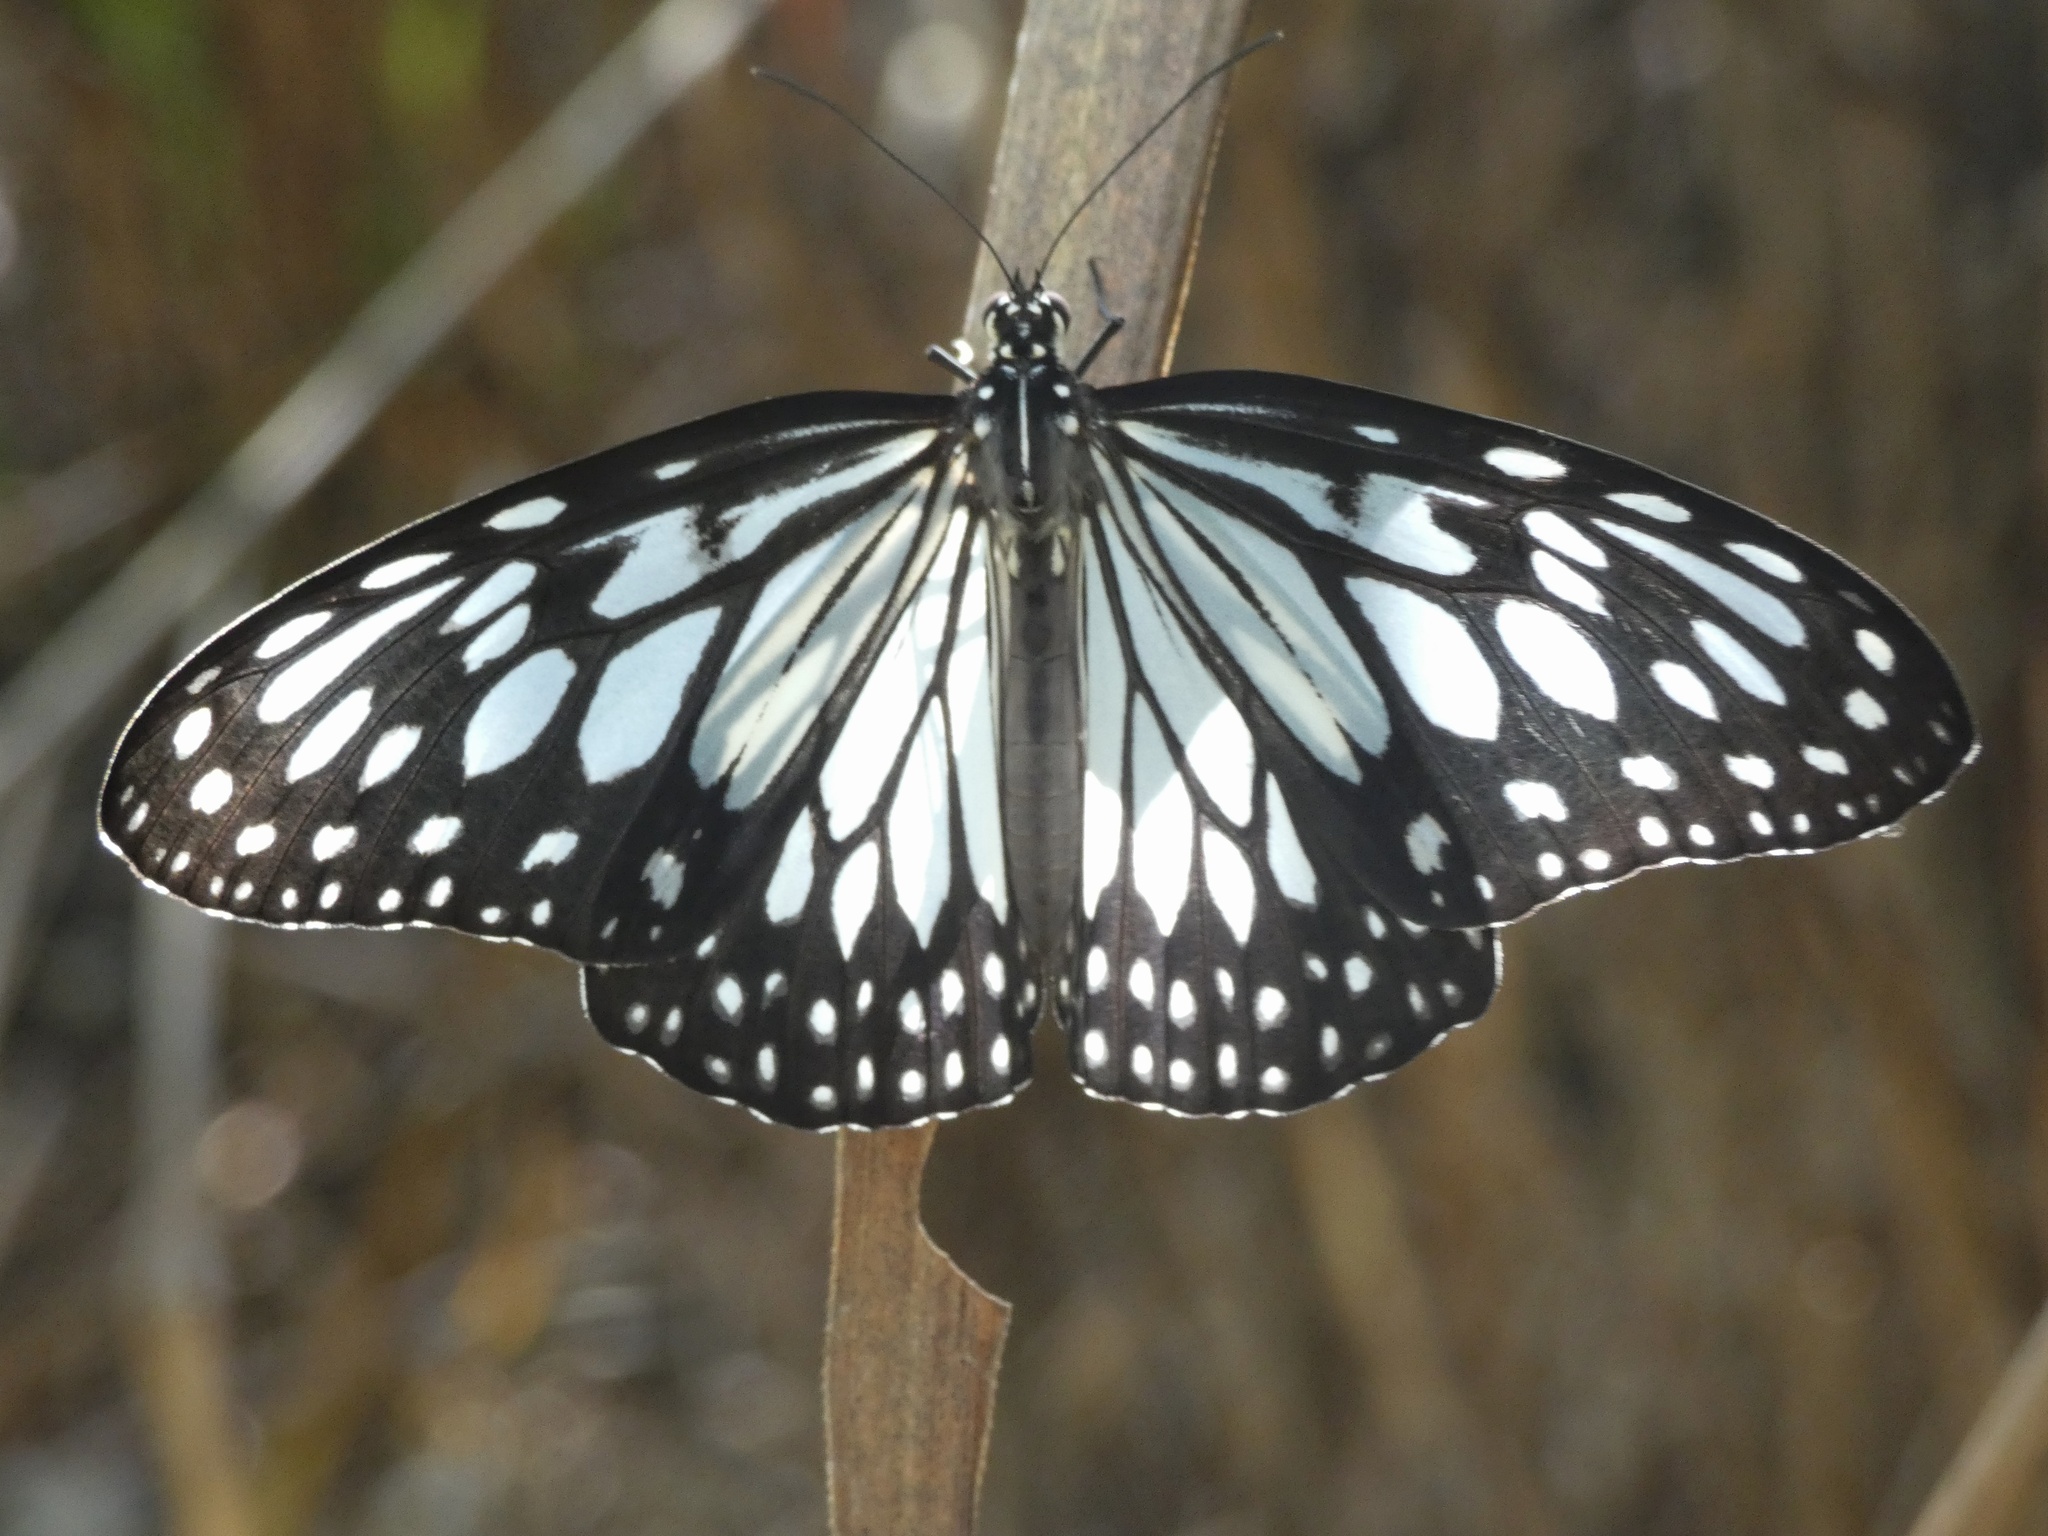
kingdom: Animalia
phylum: Arthropoda
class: Insecta
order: Lepidoptera
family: Nymphalidae
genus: Ideopsis
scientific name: Ideopsis juventa
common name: Grey glassy tiger
